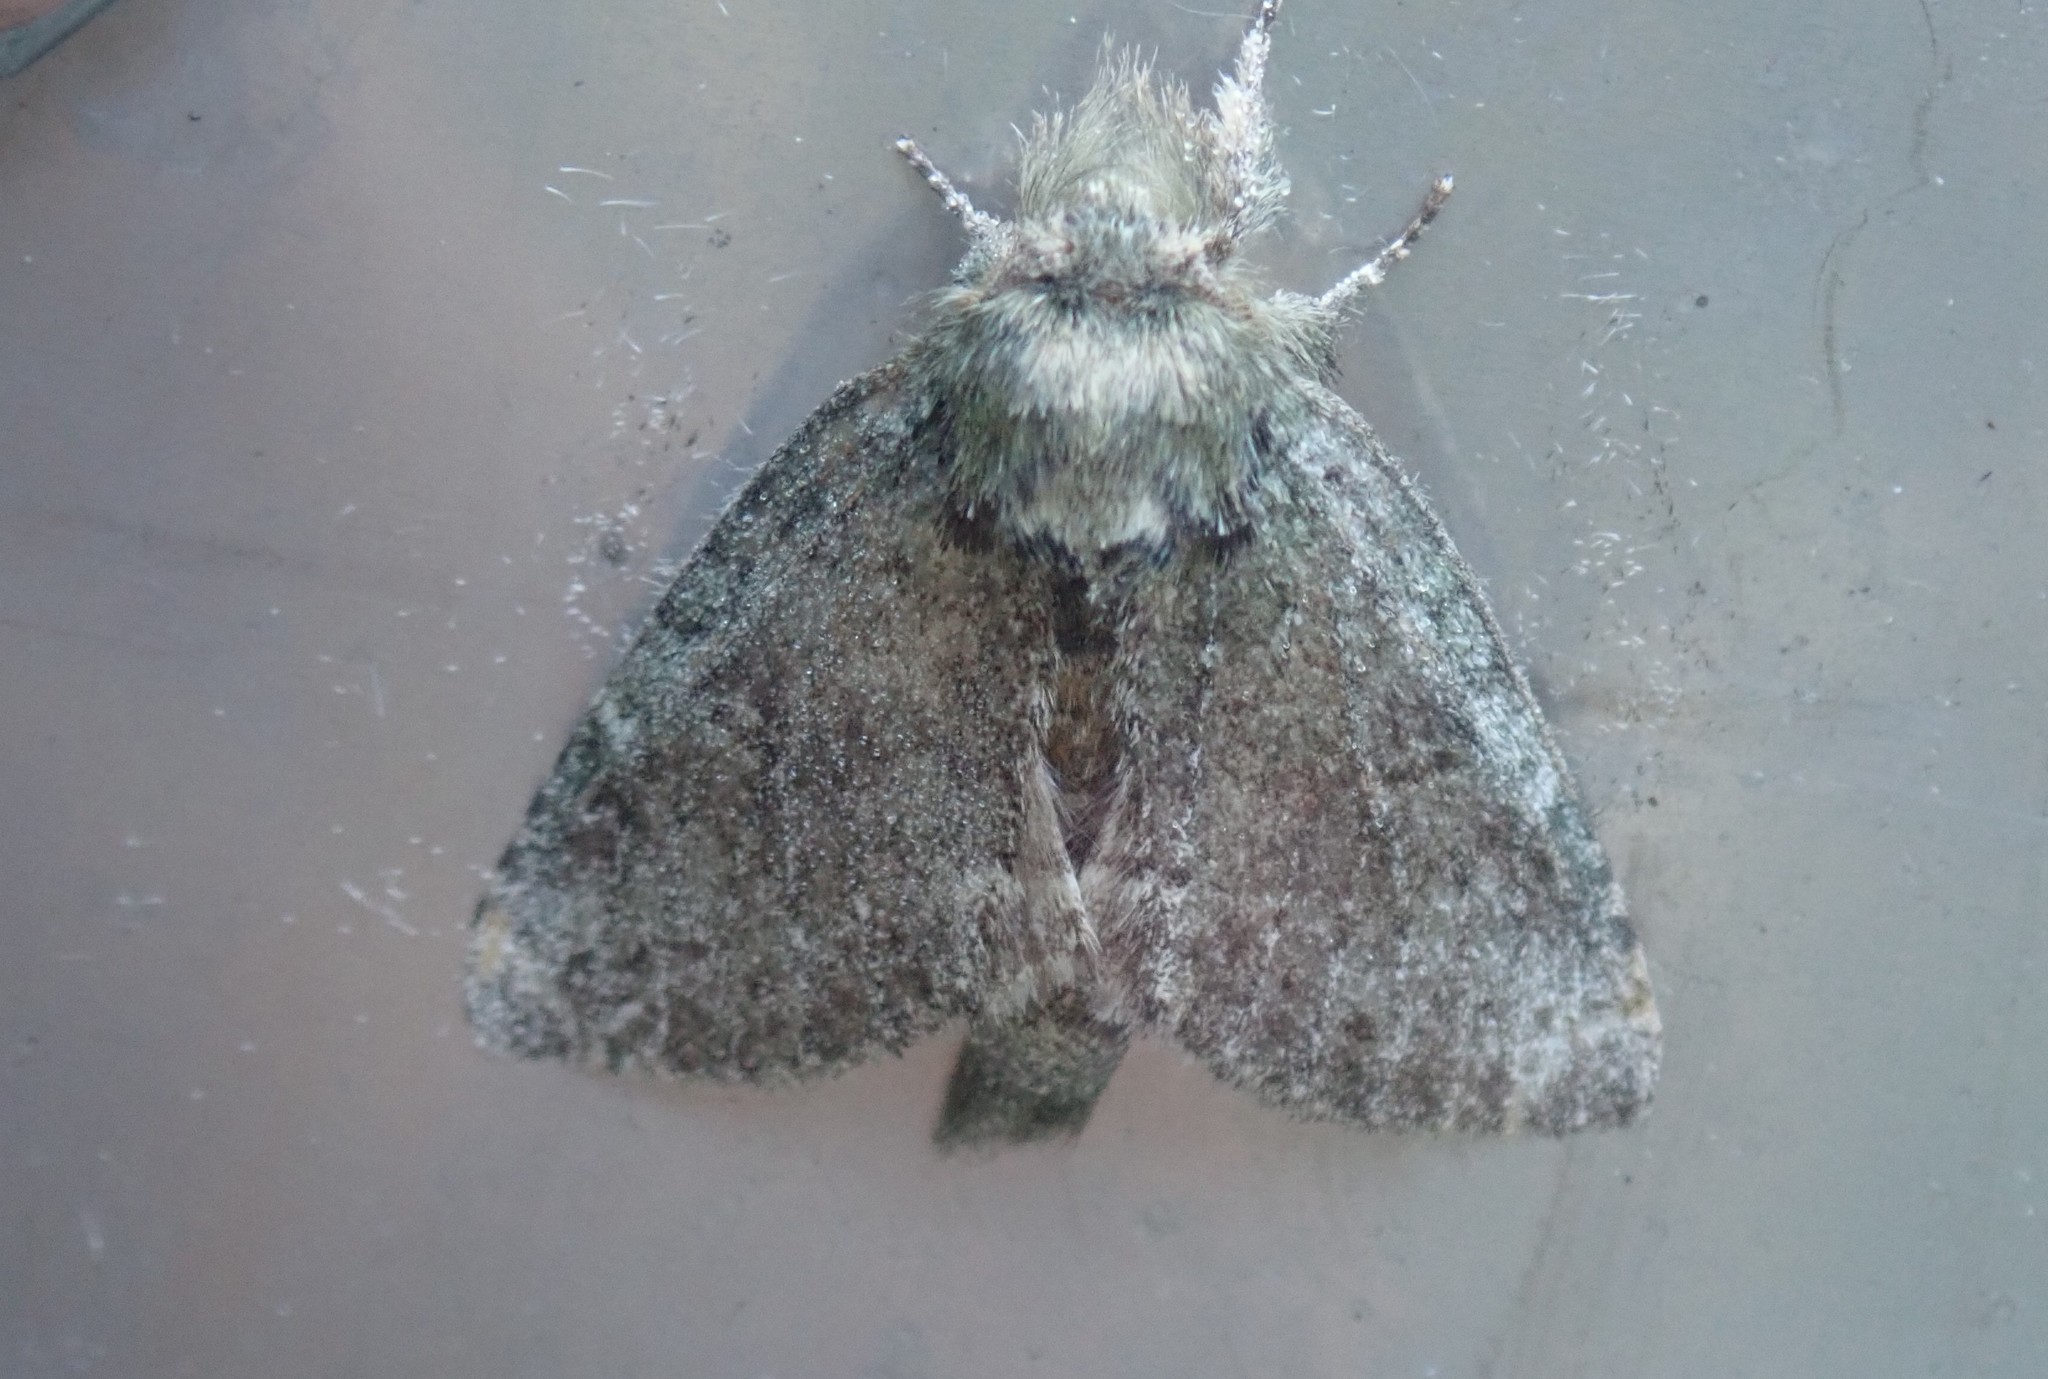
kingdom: Animalia
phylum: Arthropoda
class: Insecta
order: Lepidoptera
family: Notodontidae
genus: Disphragis
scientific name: Disphragis Cecrita guttivitta
